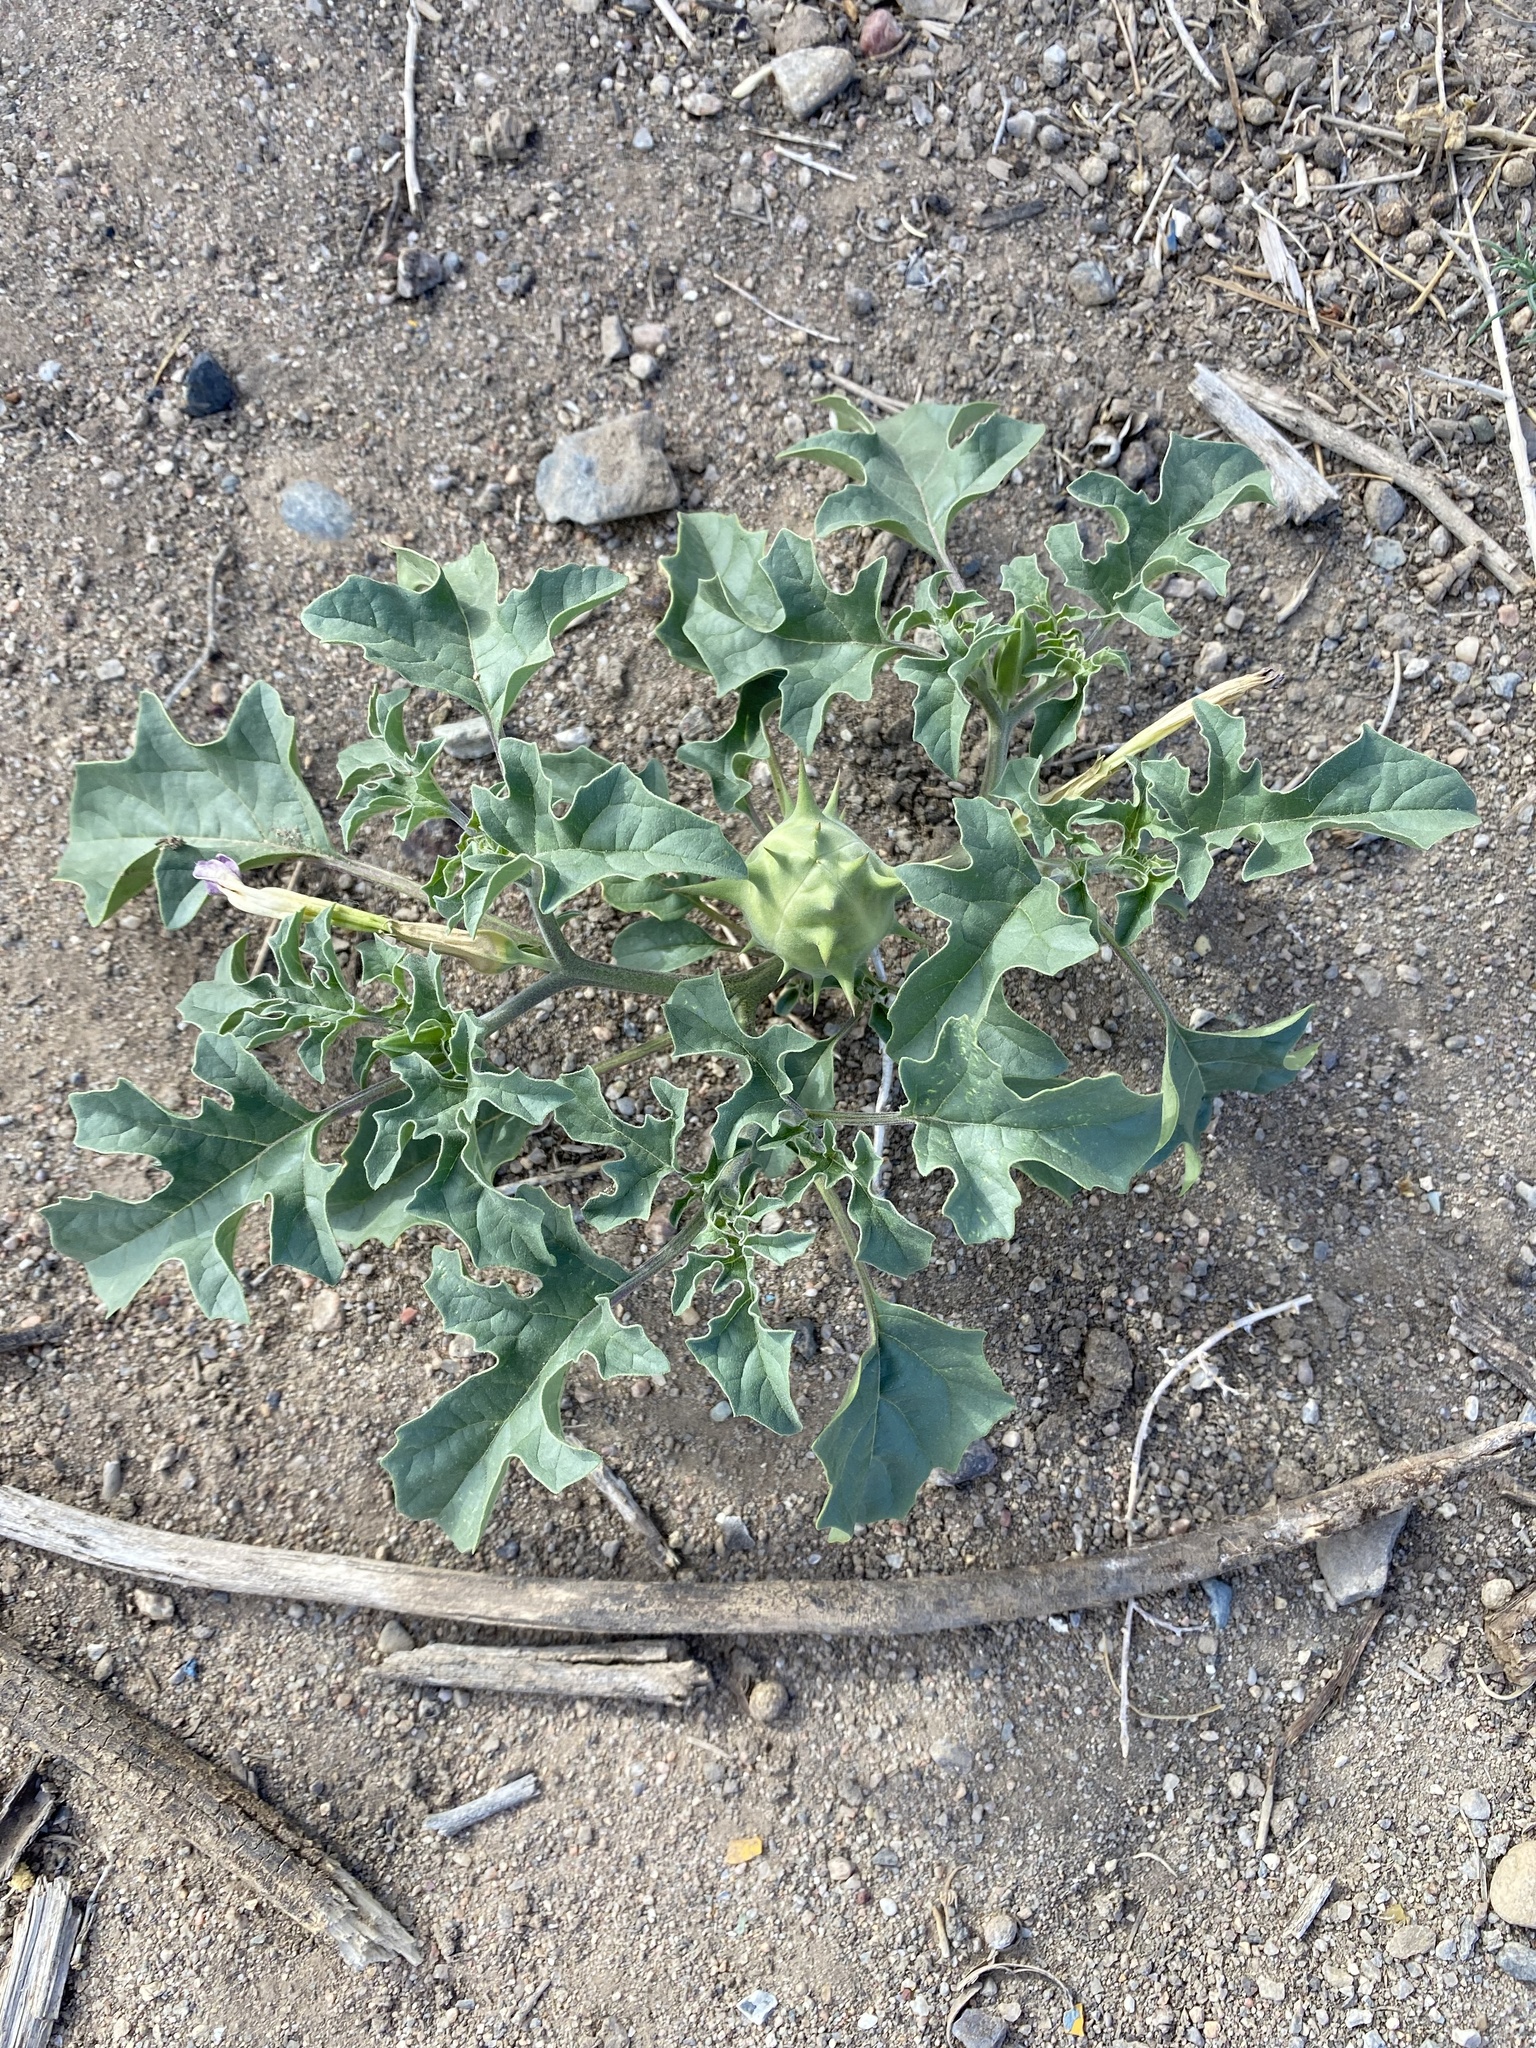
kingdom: Plantae
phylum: Tracheophyta
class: Magnoliopsida
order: Solanales
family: Solanaceae
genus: Datura
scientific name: Datura quercifolia
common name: Oak-leaf datura
